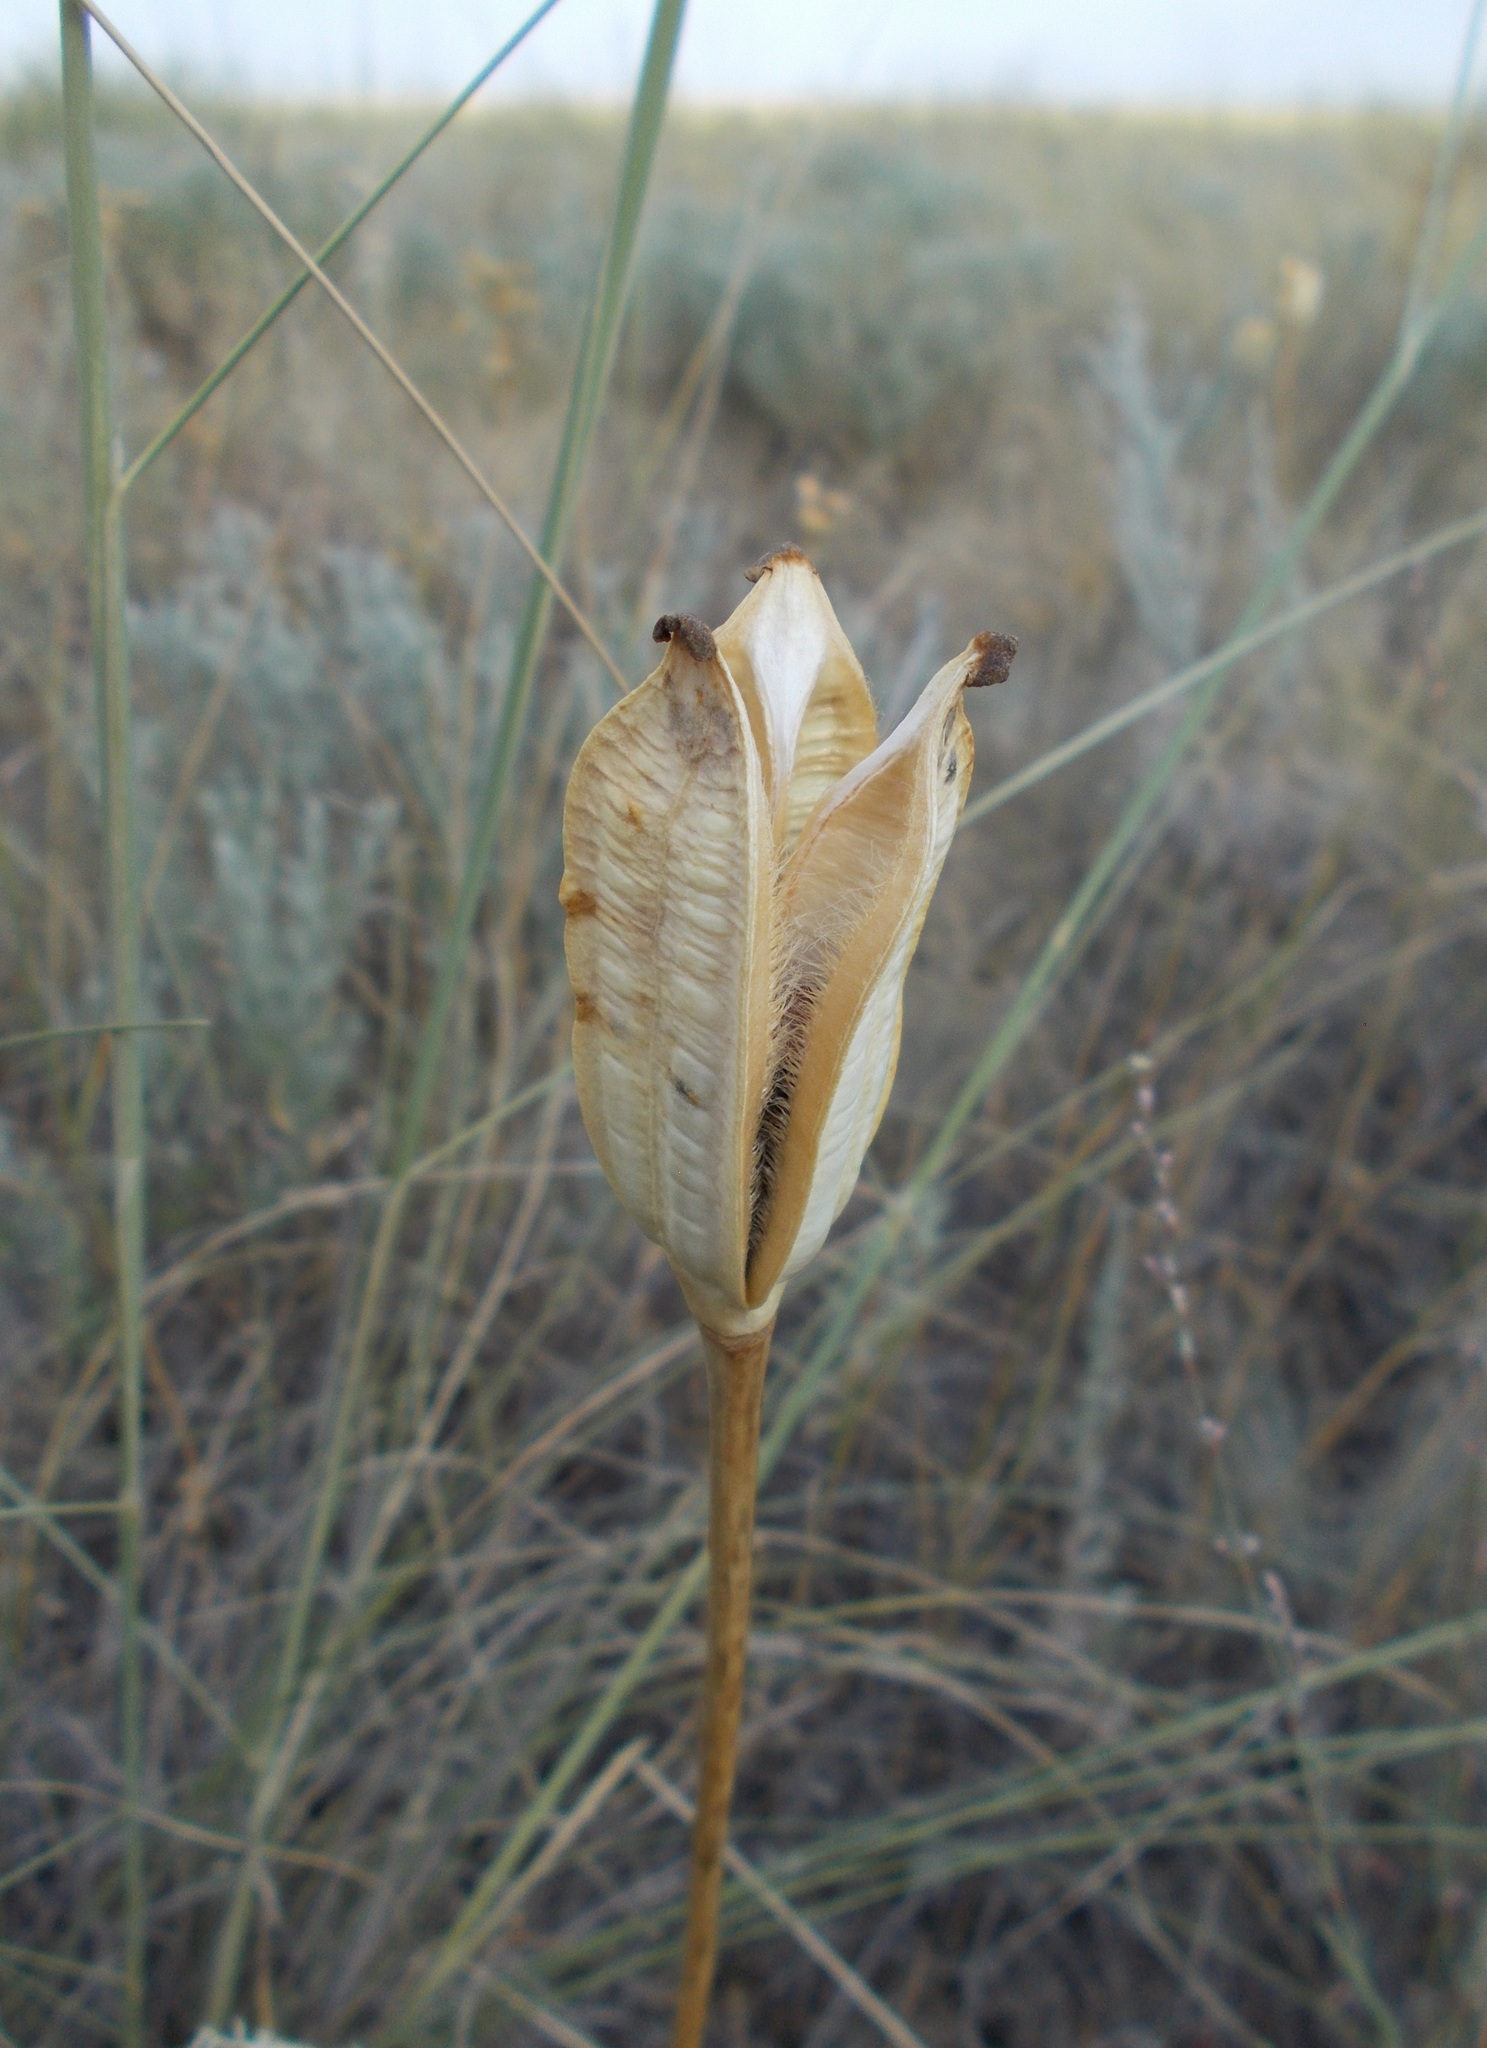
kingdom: Plantae
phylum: Tracheophyta
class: Liliopsida
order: Liliales
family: Liliaceae
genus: Tulipa
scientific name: Tulipa suaveolens
